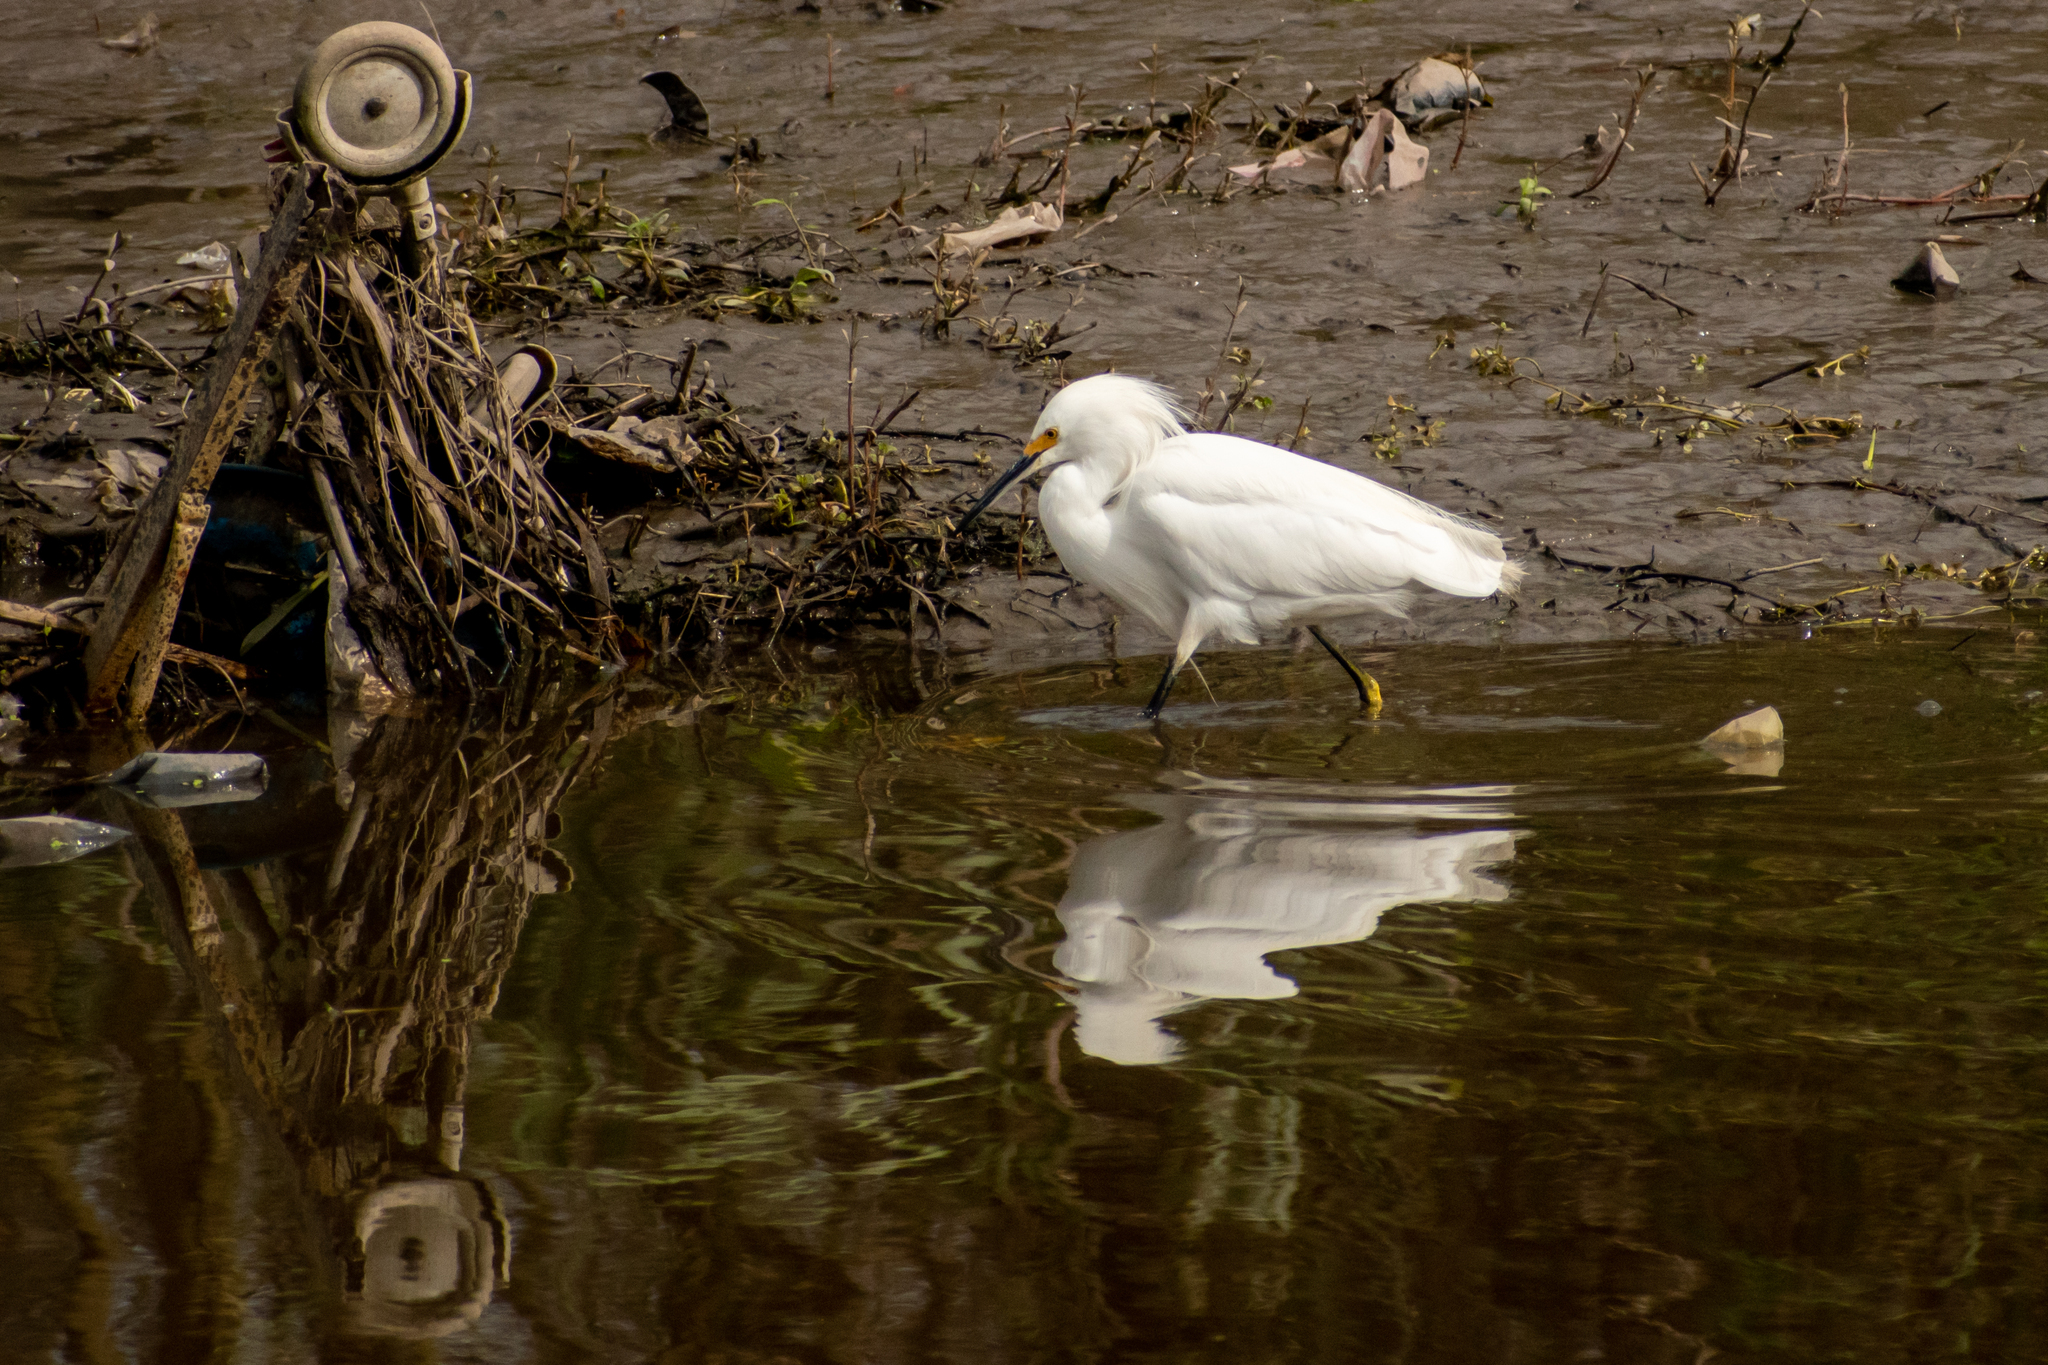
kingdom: Animalia
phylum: Chordata
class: Aves
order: Pelecaniformes
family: Ardeidae
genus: Egretta
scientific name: Egretta thula
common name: Snowy egret
